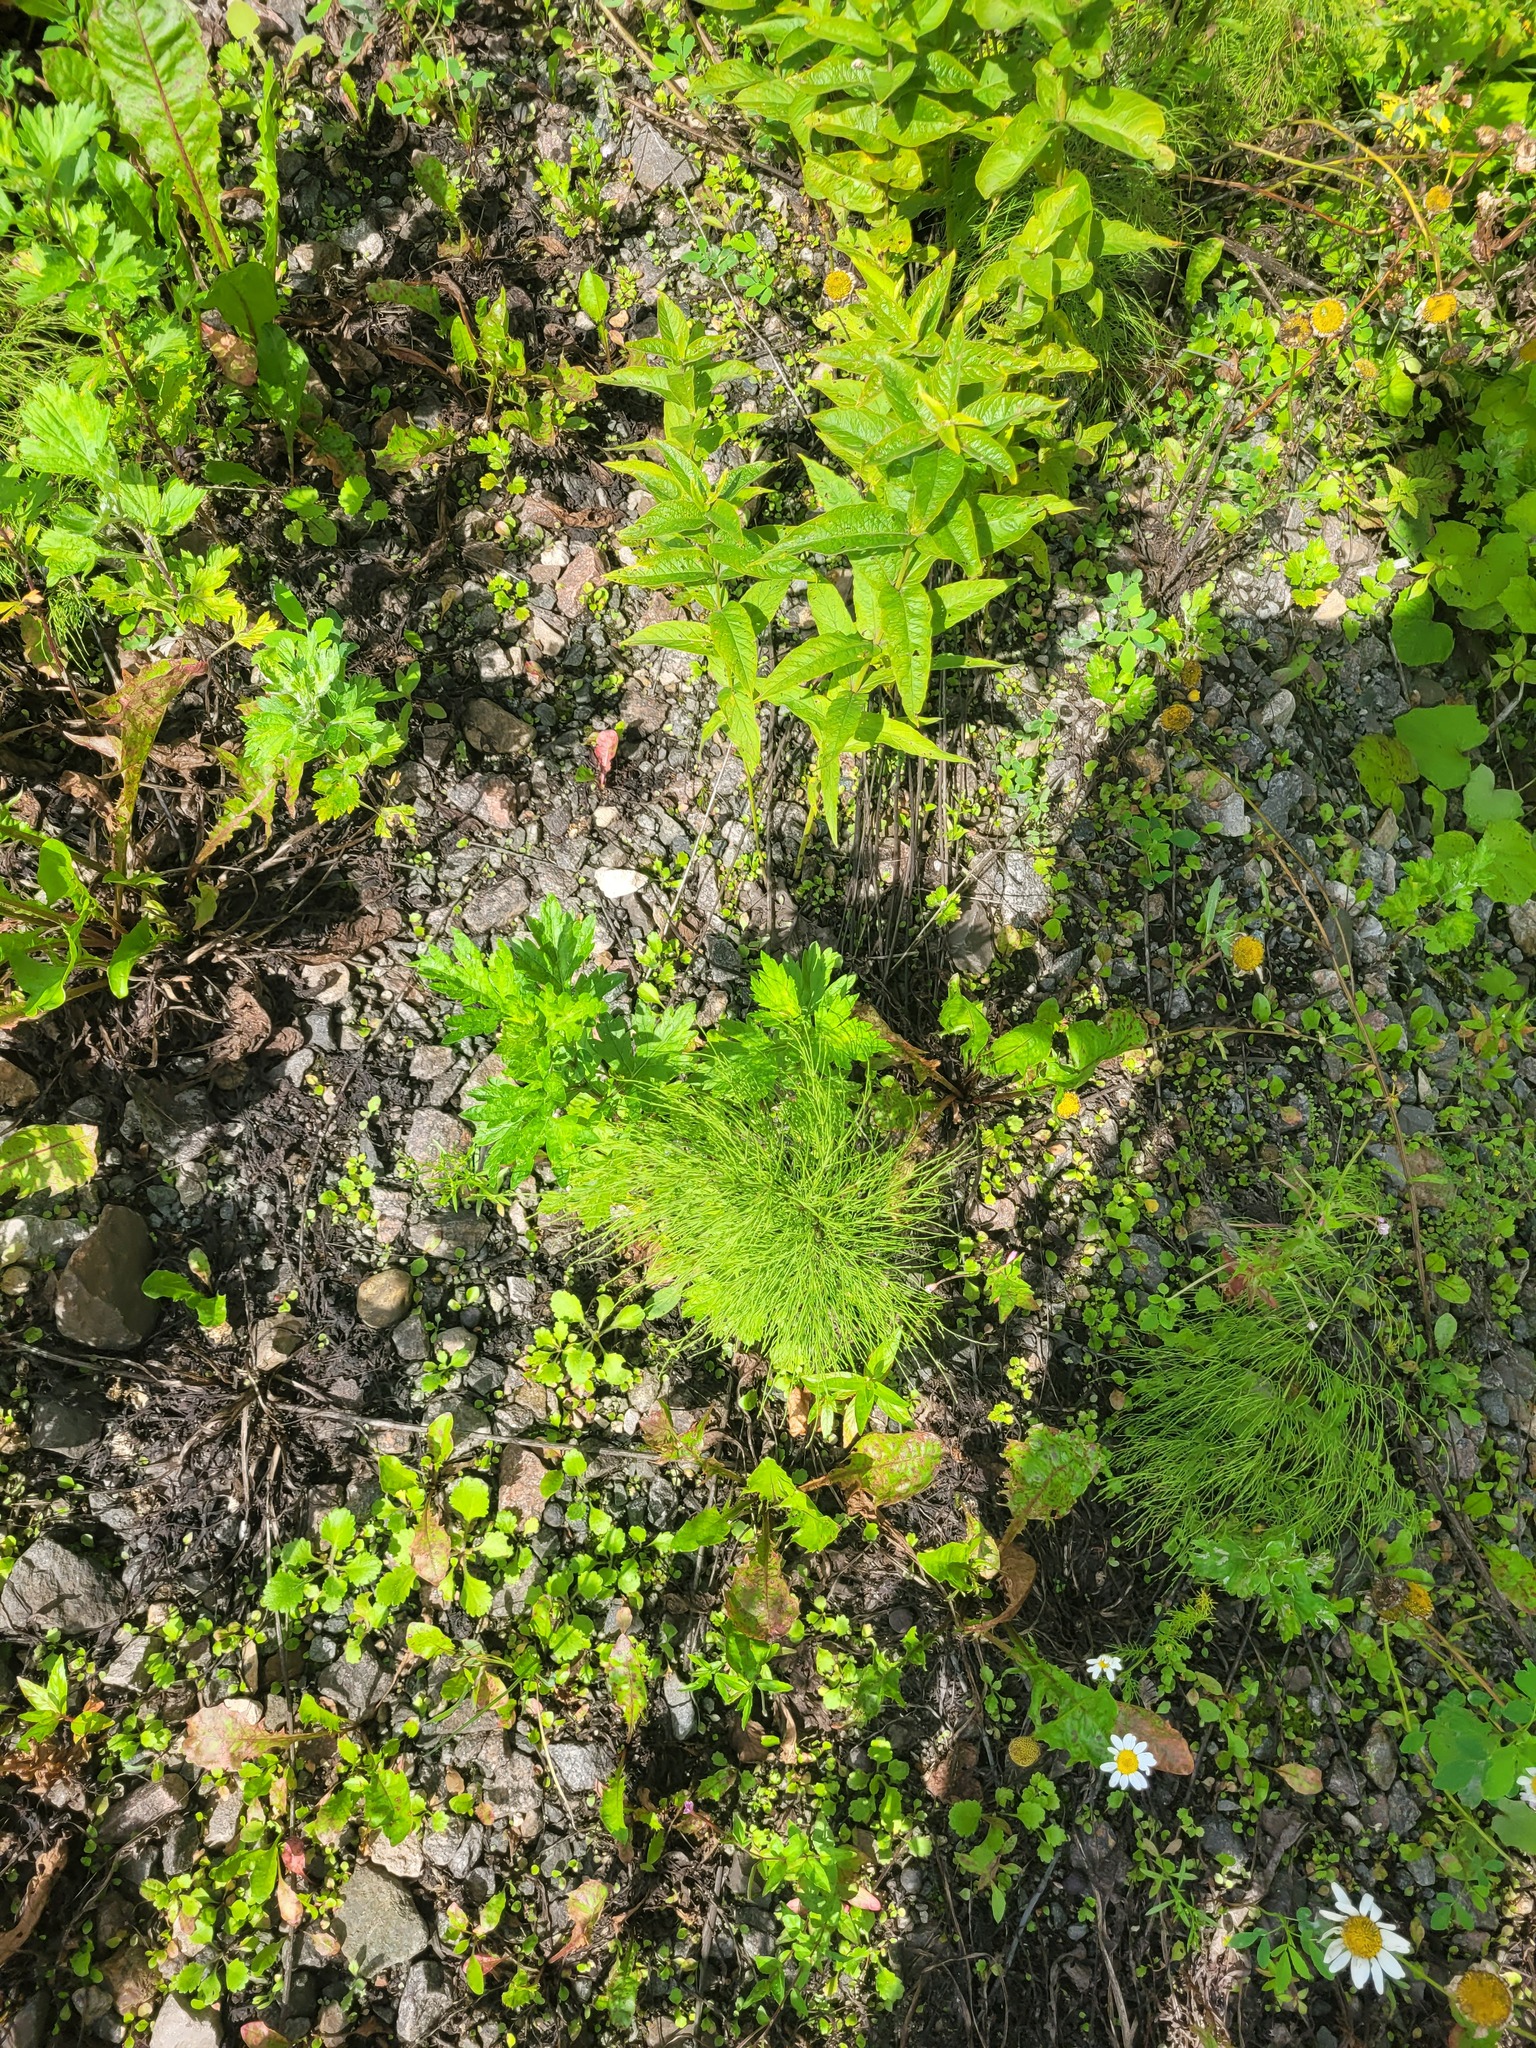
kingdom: Plantae
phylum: Tracheophyta
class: Polypodiopsida
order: Equisetales
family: Equisetaceae
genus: Equisetum
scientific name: Equisetum sylvaticum
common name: Wood horsetail
